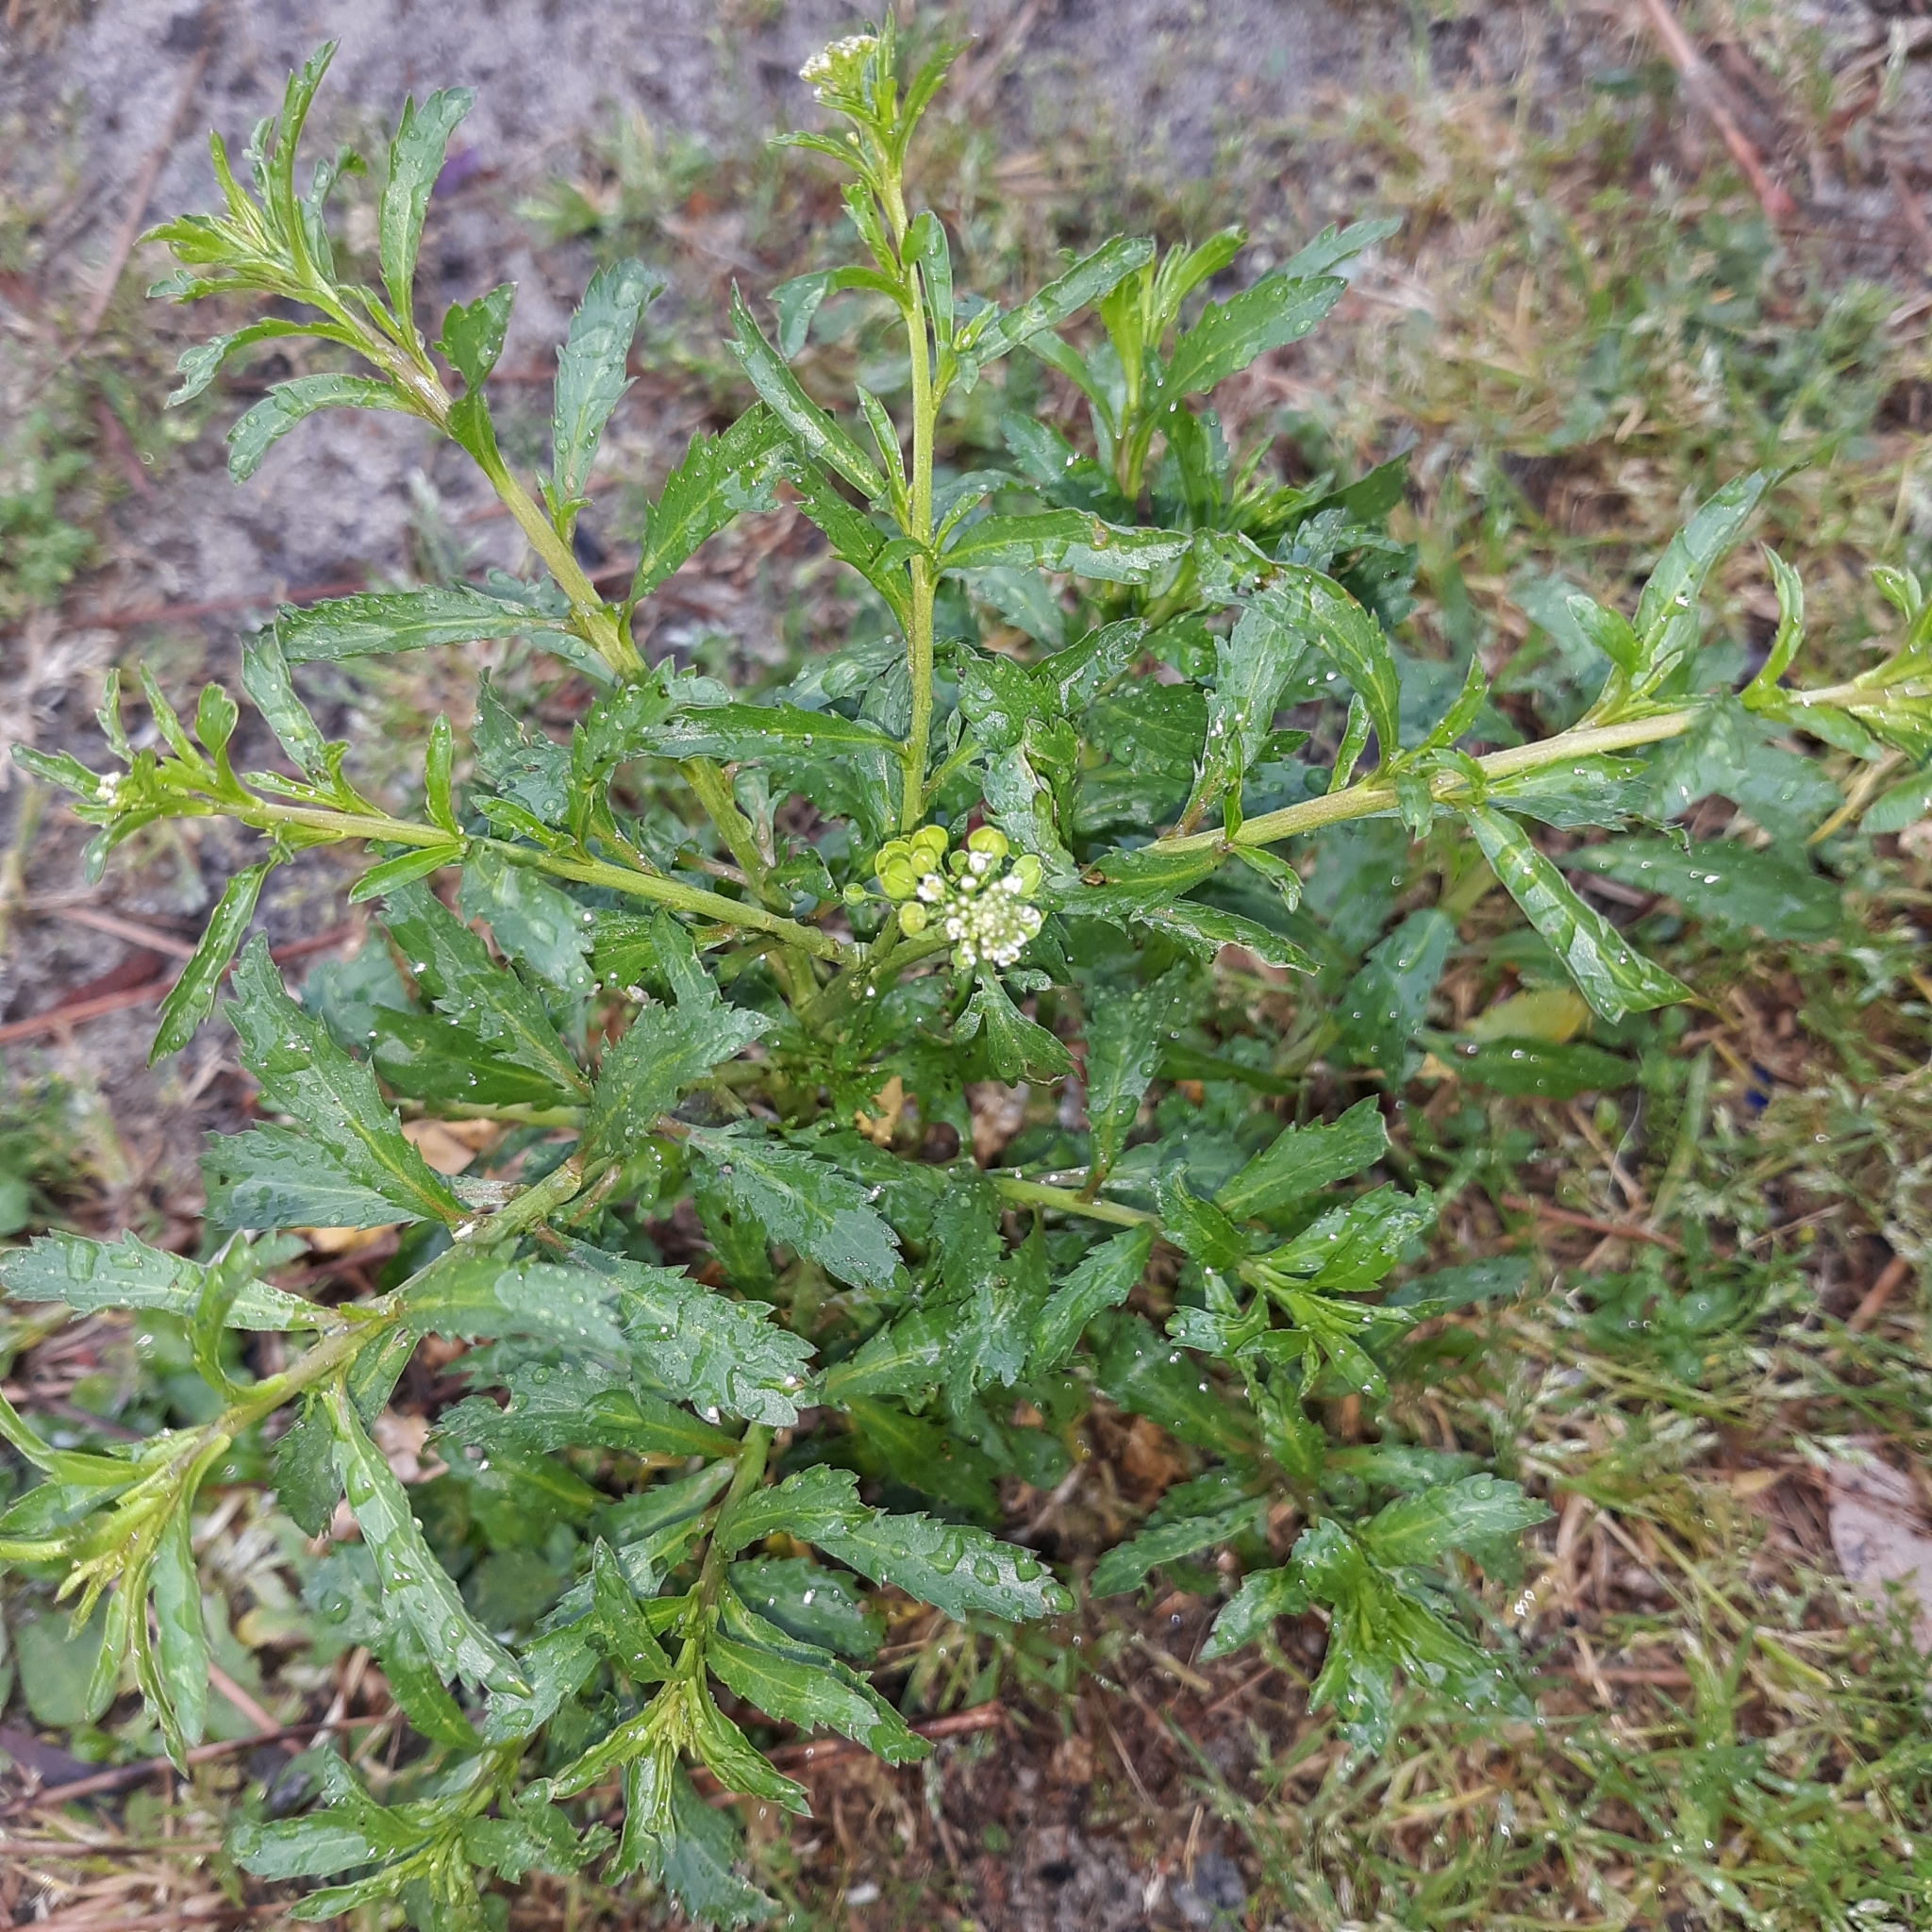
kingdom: Plantae
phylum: Tracheophyta
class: Magnoliopsida
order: Brassicales
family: Brassicaceae
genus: Lepidium
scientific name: Lepidium virginicum
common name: Least pepperwort
